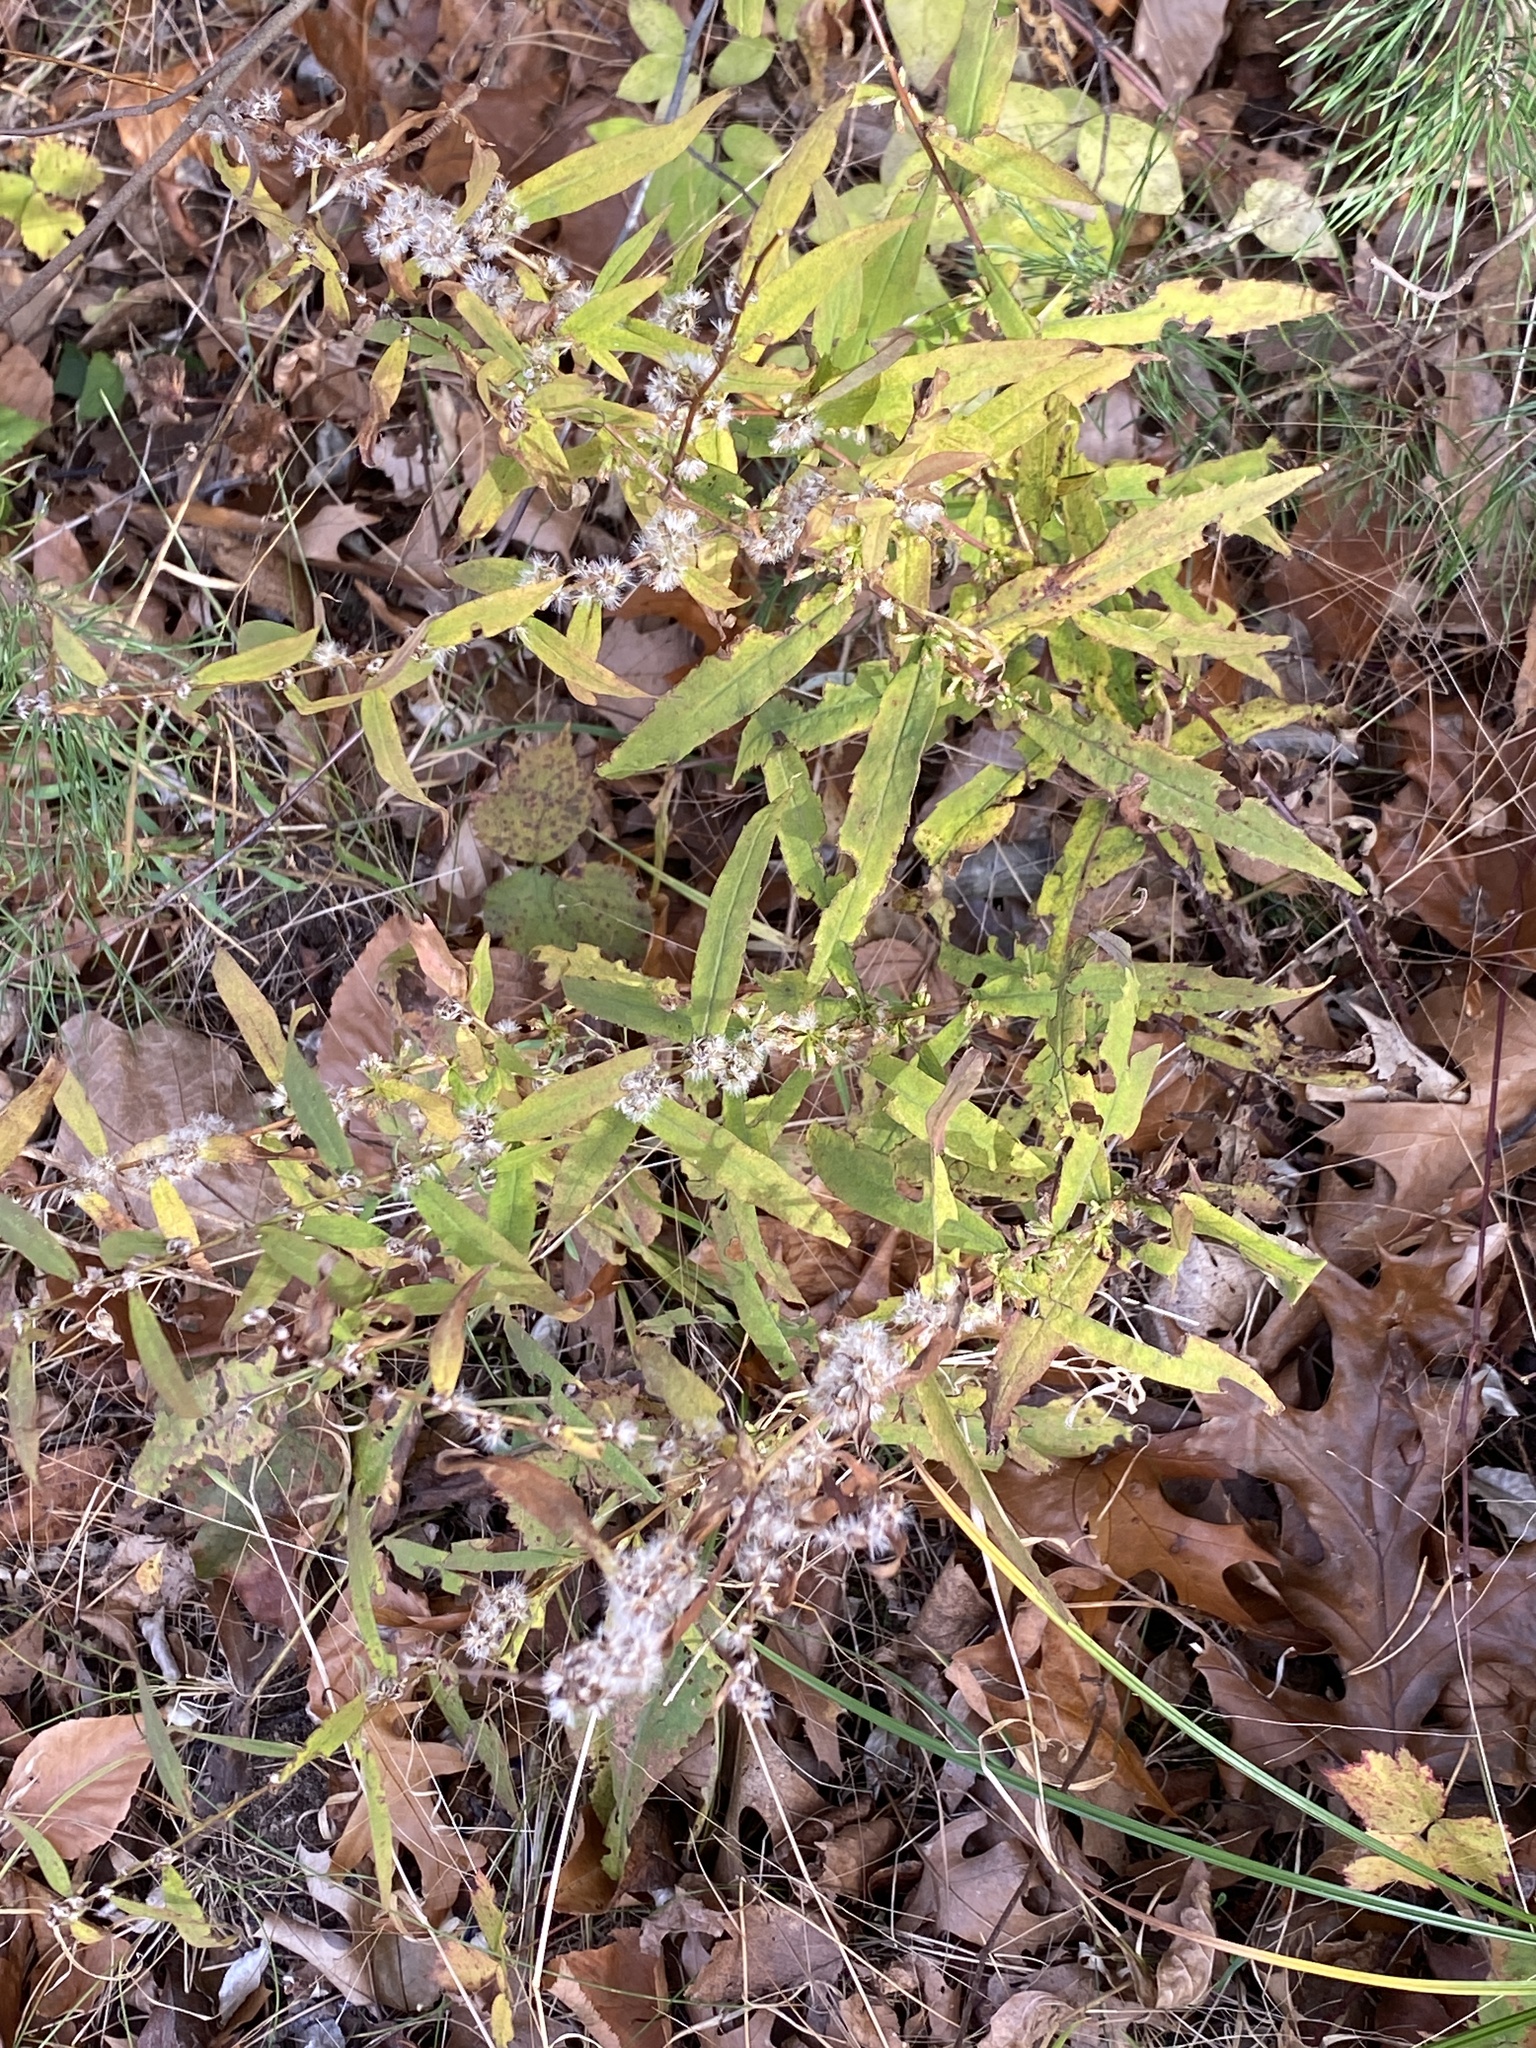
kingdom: Plantae
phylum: Tracheophyta
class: Magnoliopsida
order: Asterales
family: Asteraceae
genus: Solidago
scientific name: Solidago caesia
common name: Woodland goldenrod
